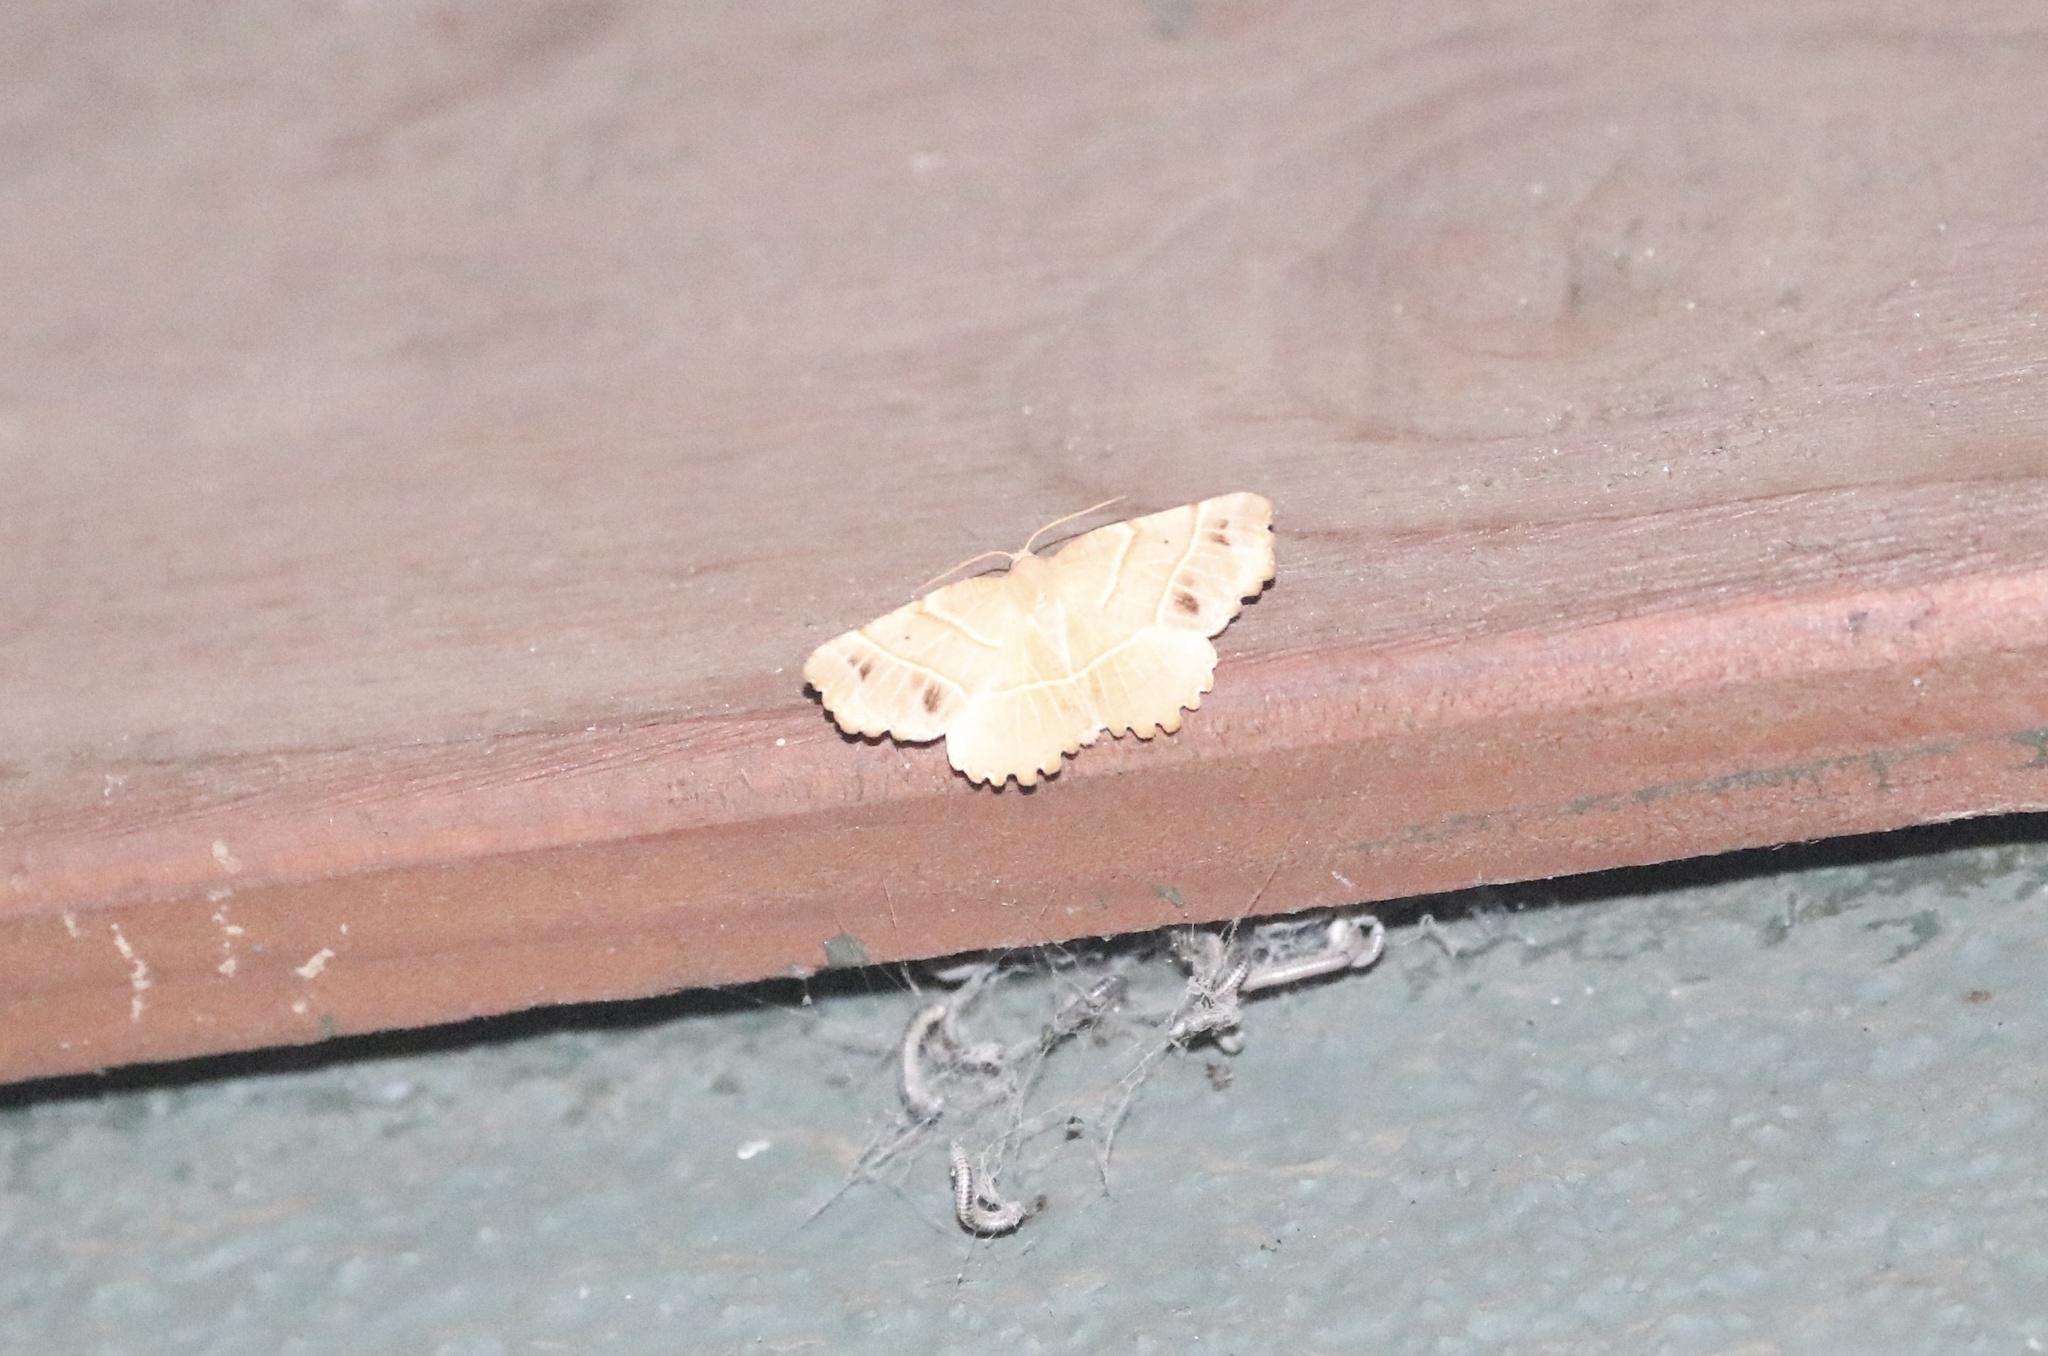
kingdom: Animalia
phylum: Arthropoda
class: Insecta
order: Lepidoptera
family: Geometridae
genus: Microclysia
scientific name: Microclysia pristopera
